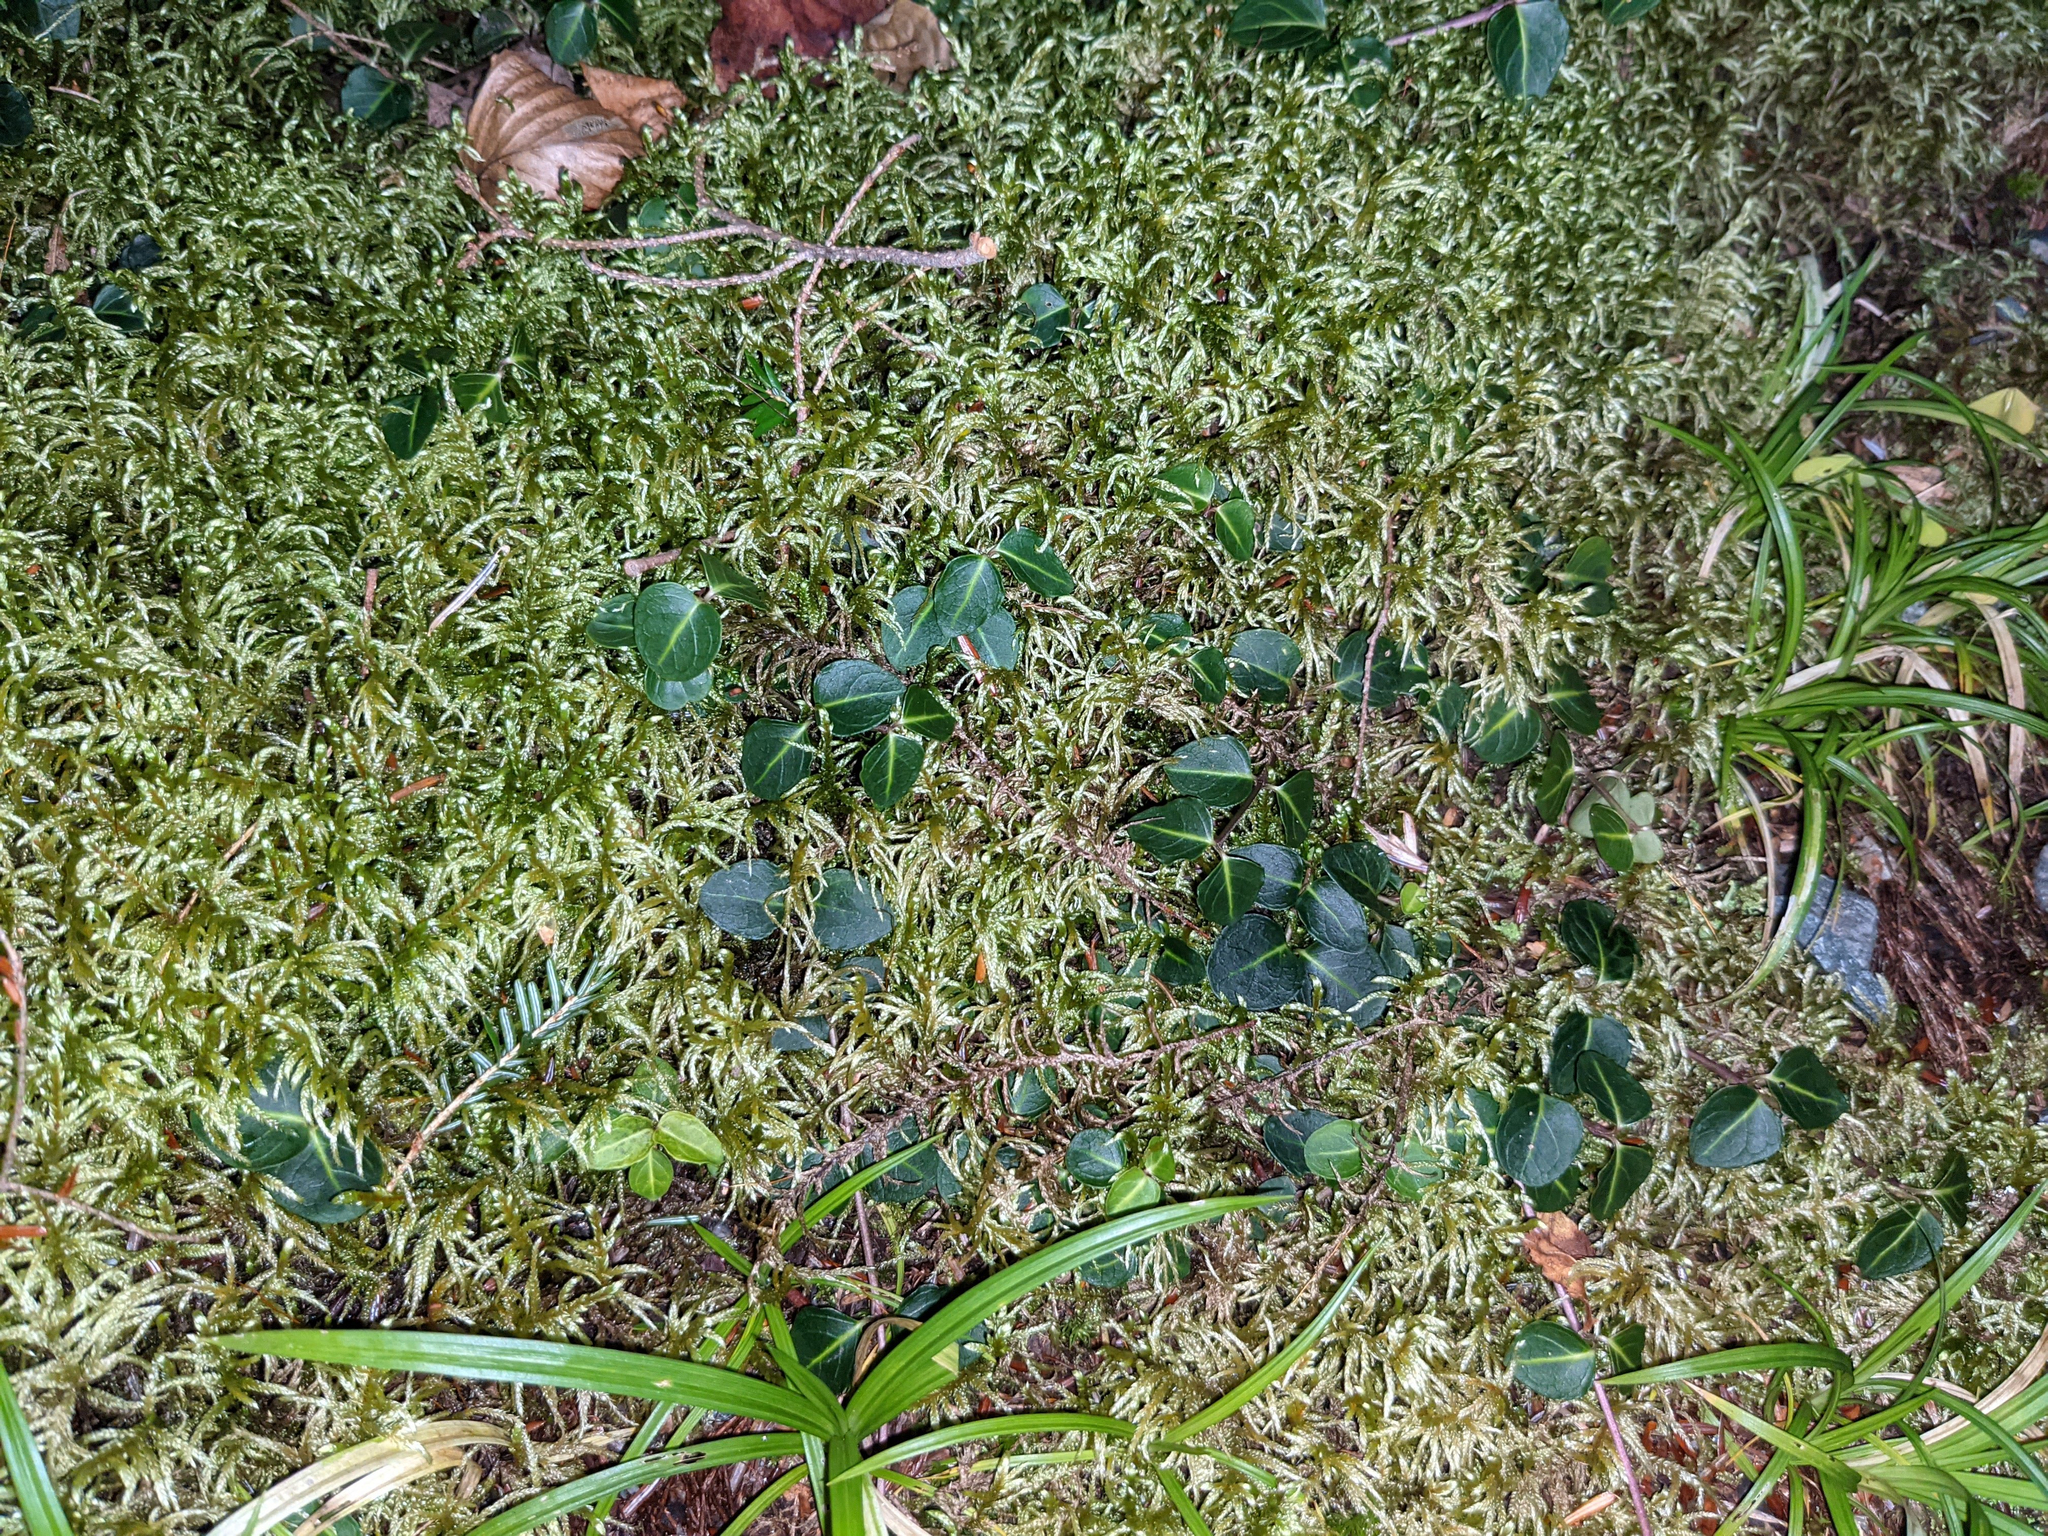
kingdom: Plantae
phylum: Tracheophyta
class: Magnoliopsida
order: Gentianales
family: Rubiaceae
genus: Mitchella
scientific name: Mitchella repens
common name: Partridge-berry
